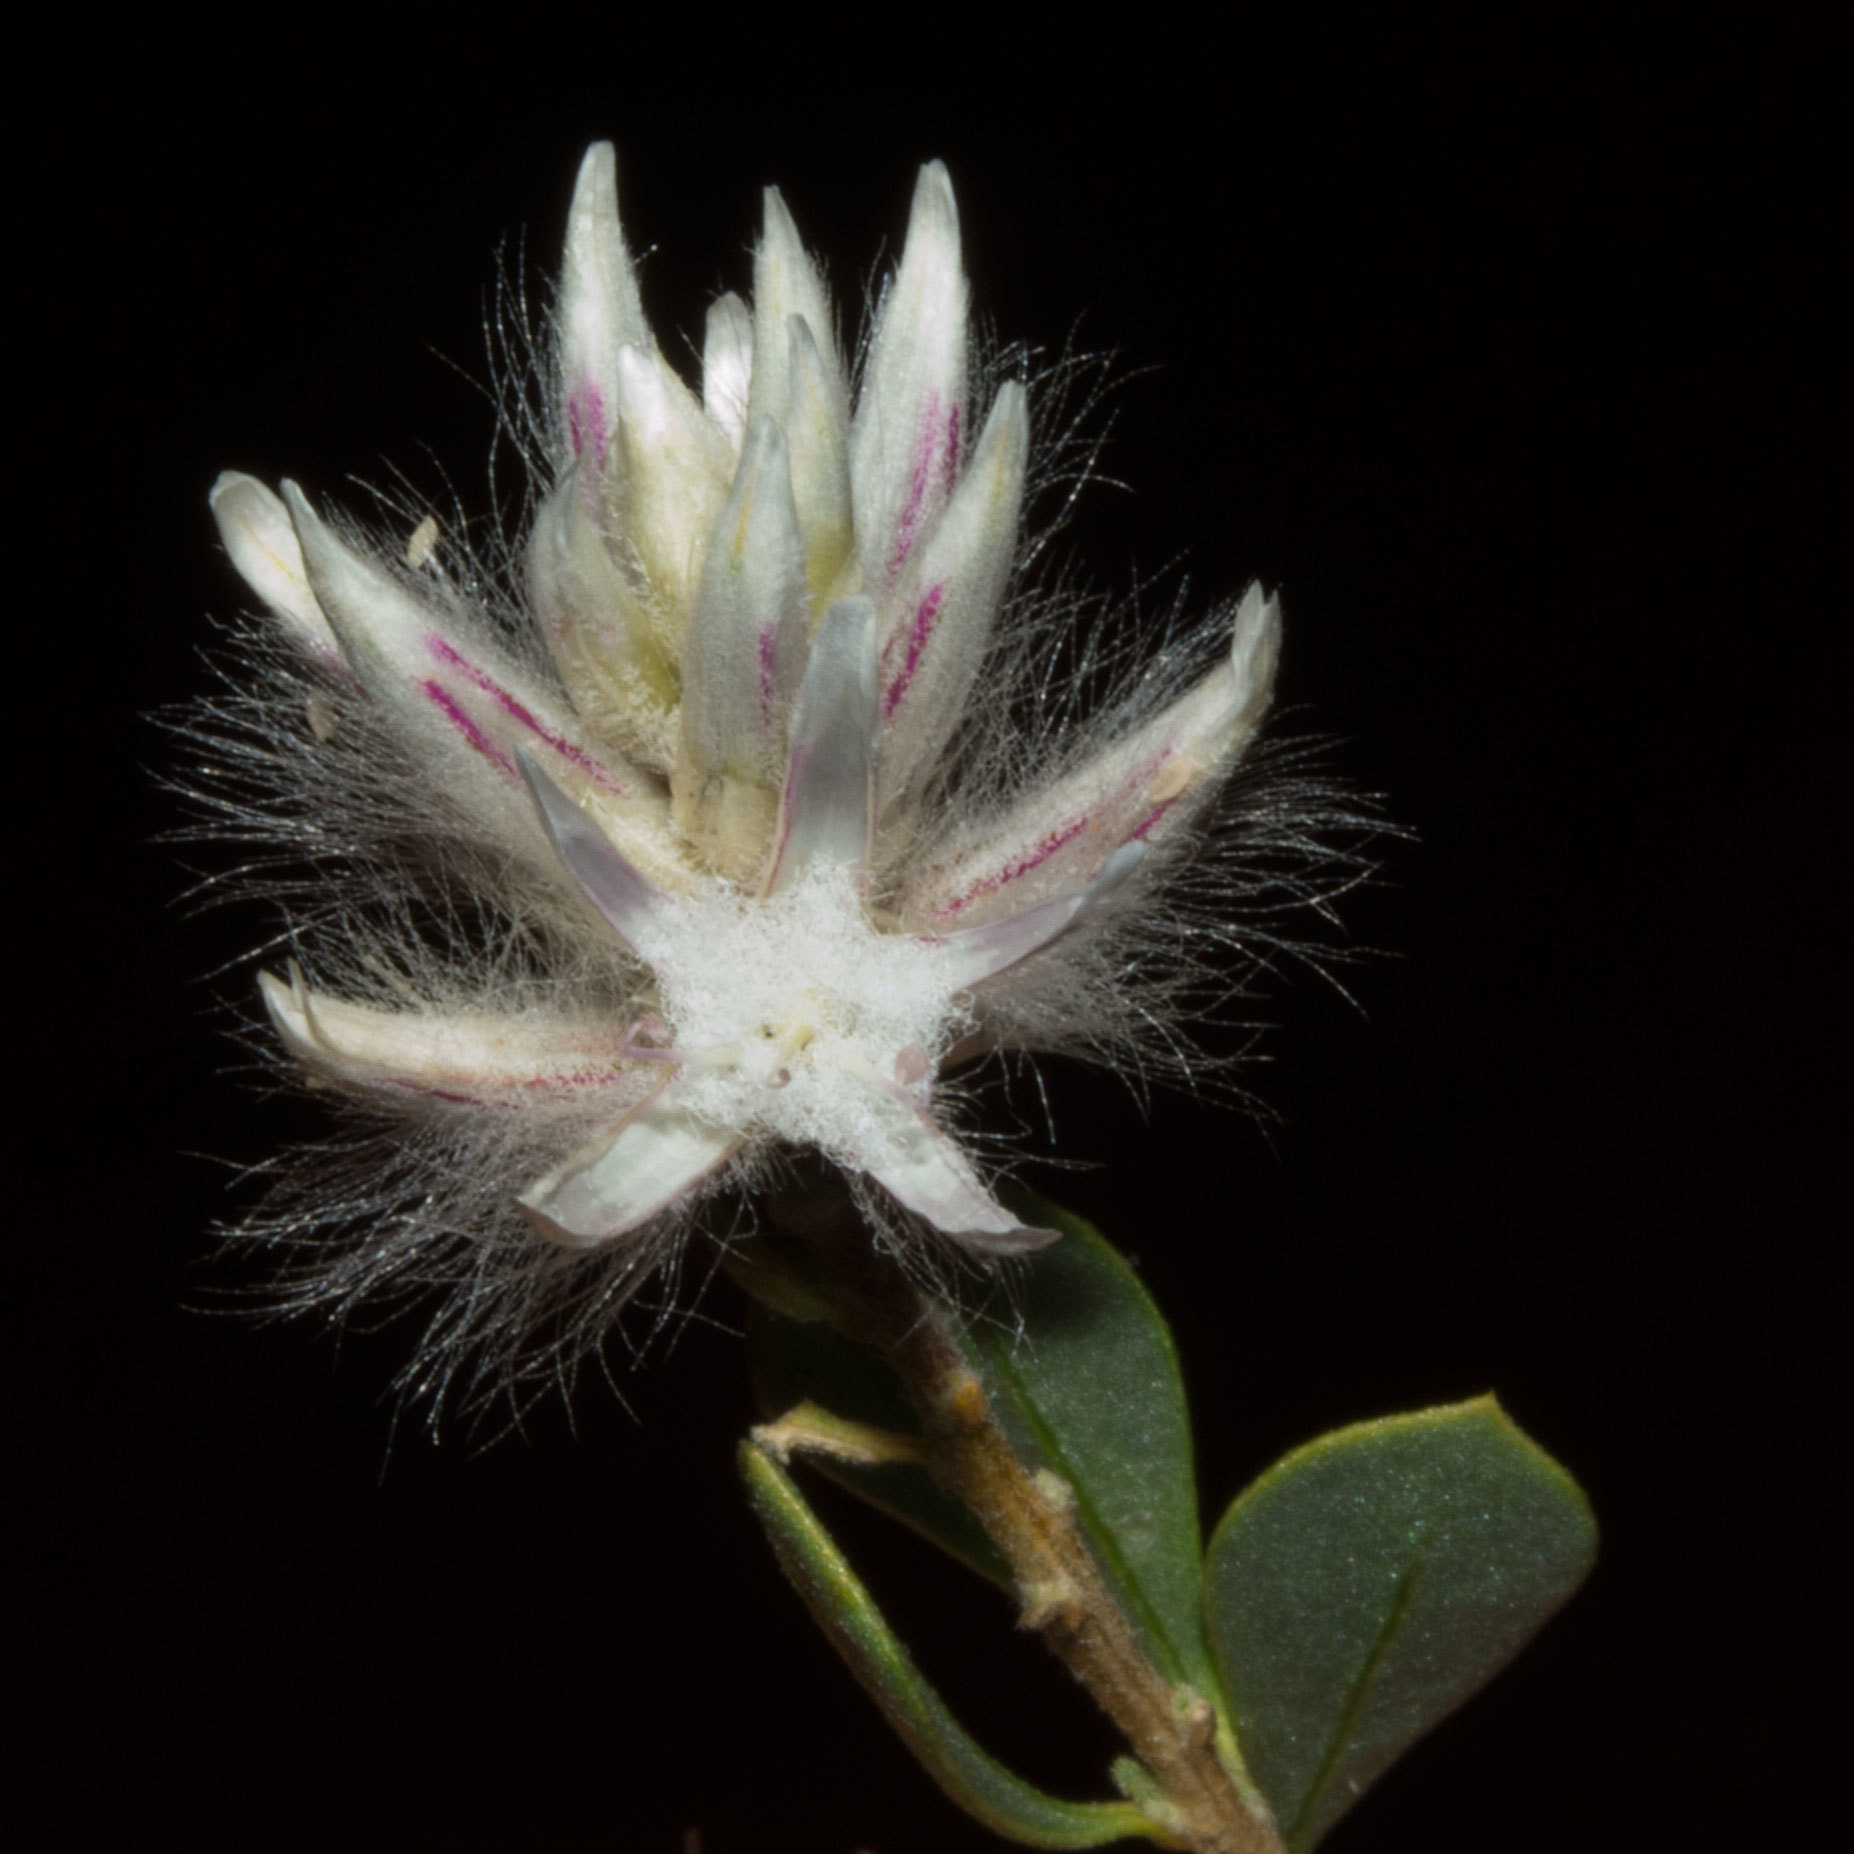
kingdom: Plantae
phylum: Tracheophyta
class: Magnoliopsida
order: Caryophyllales
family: Amaranthaceae
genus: Ptilotus
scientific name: Ptilotus polakii
